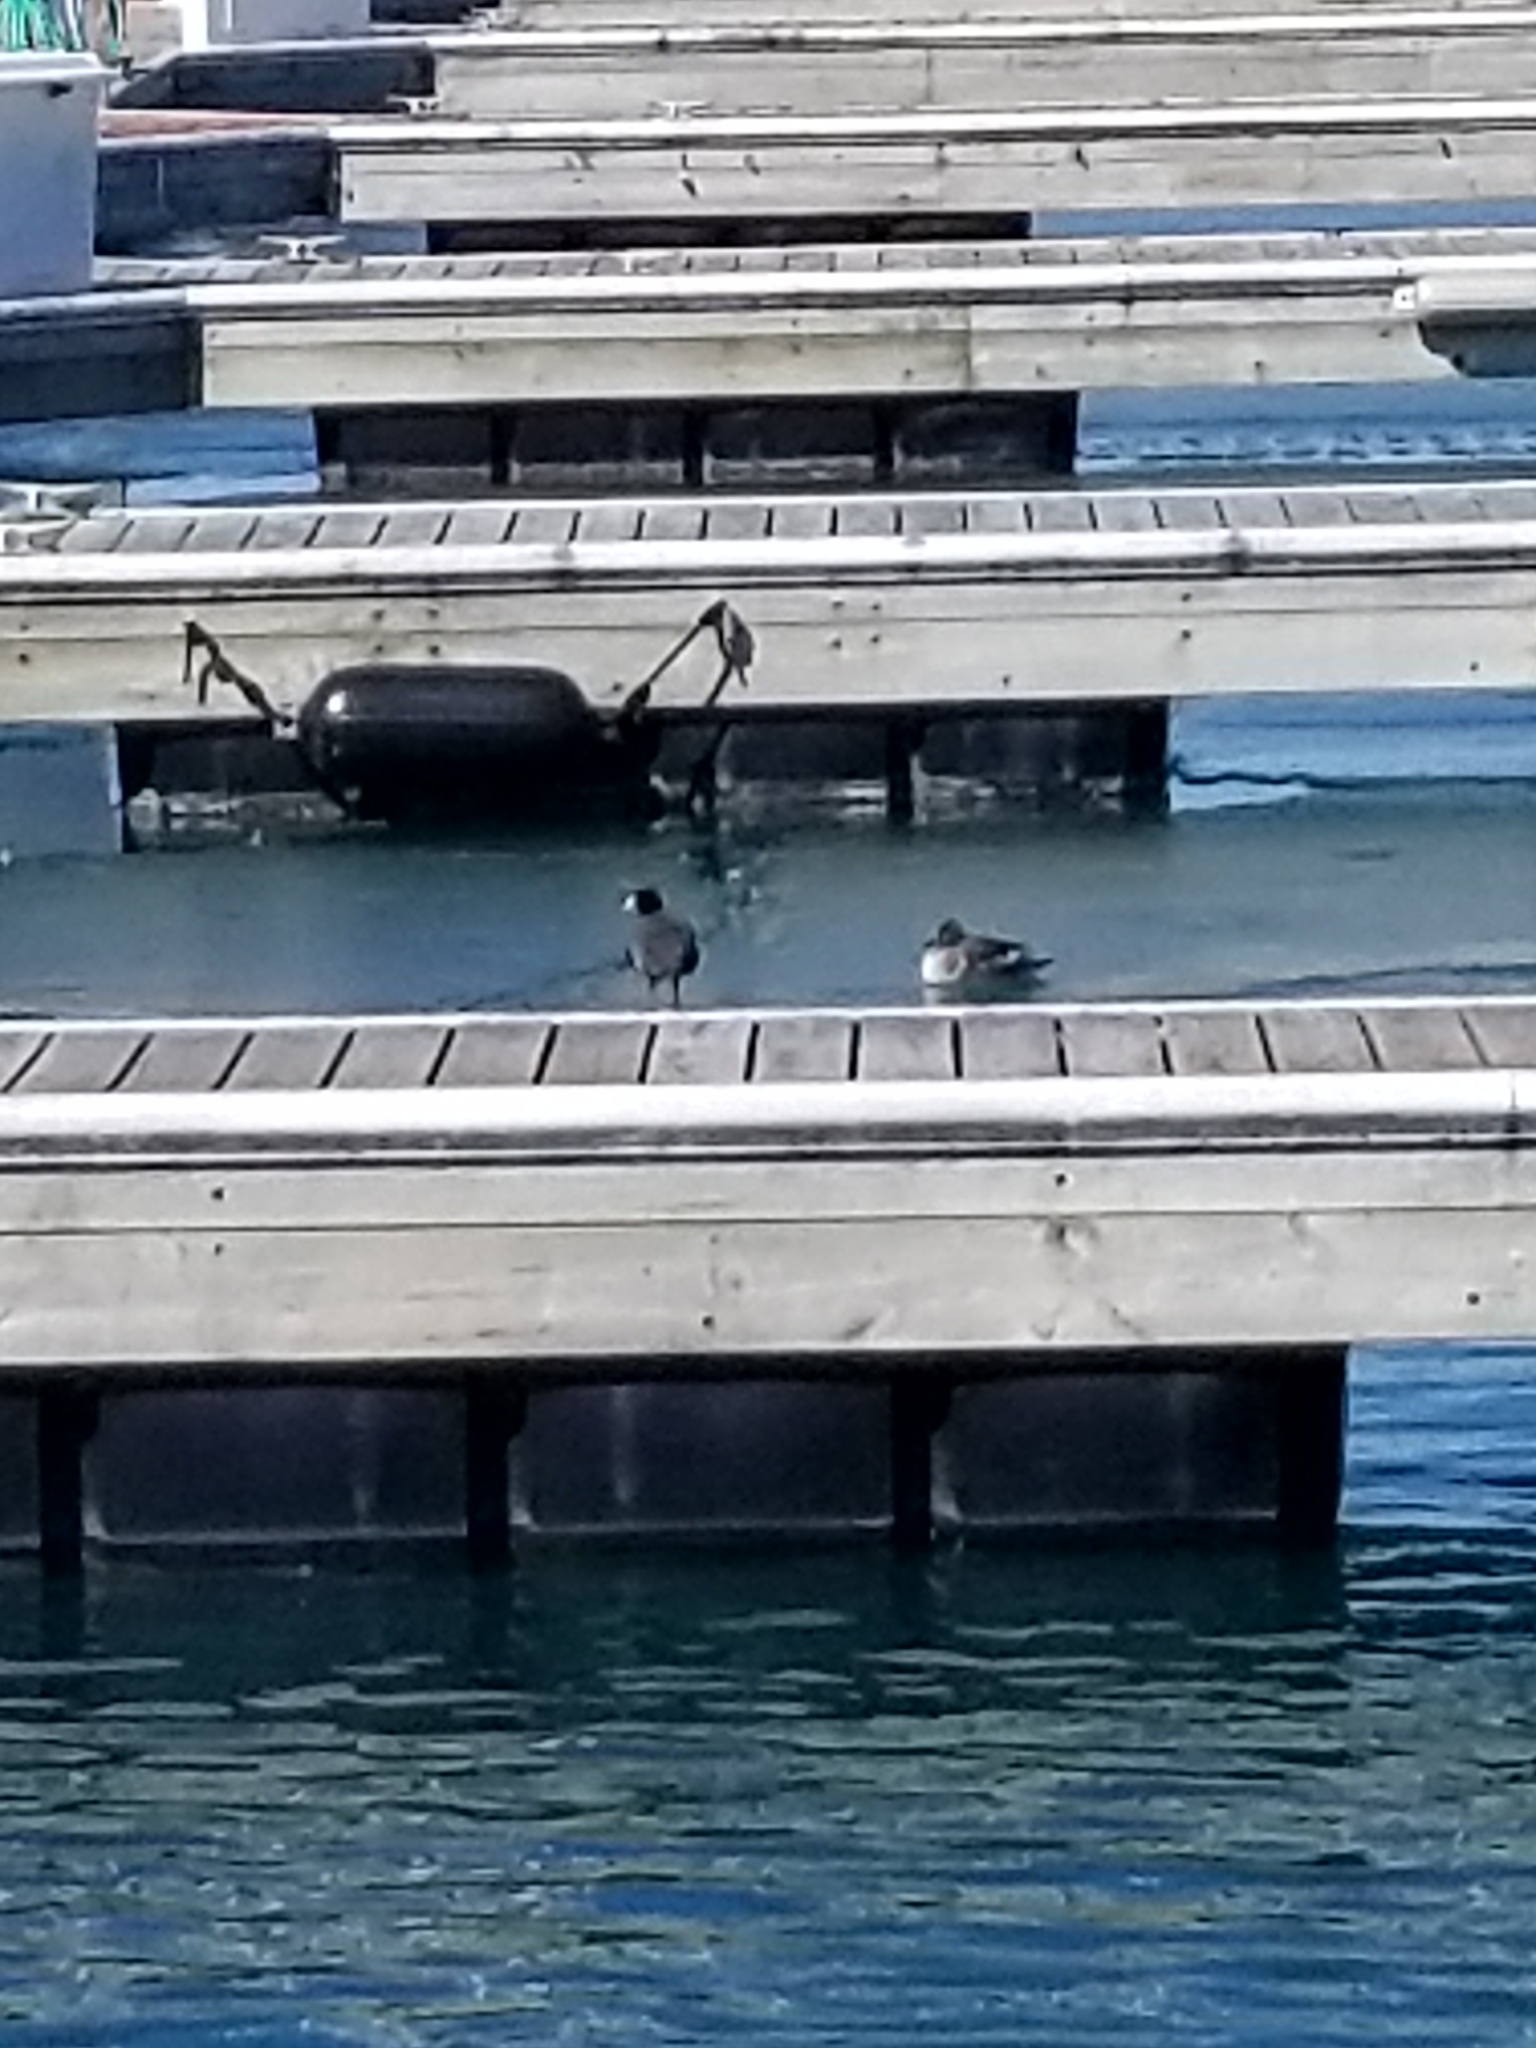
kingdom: Animalia
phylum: Chordata
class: Aves
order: Gruiformes
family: Rallidae
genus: Fulica
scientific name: Fulica americana
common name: American coot
